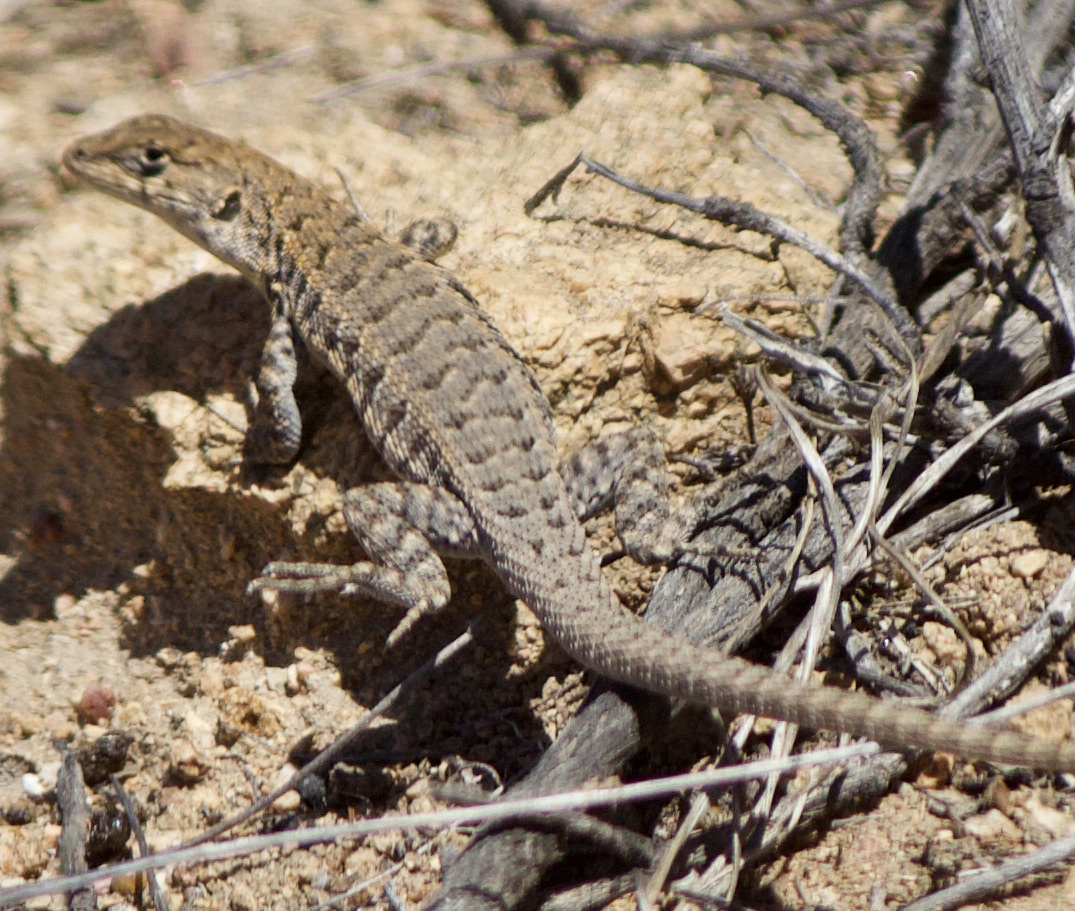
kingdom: Animalia
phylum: Chordata
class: Squamata
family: Liolaemidae
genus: Liolaemus
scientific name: Liolaemus platei
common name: Braided tree iguana
